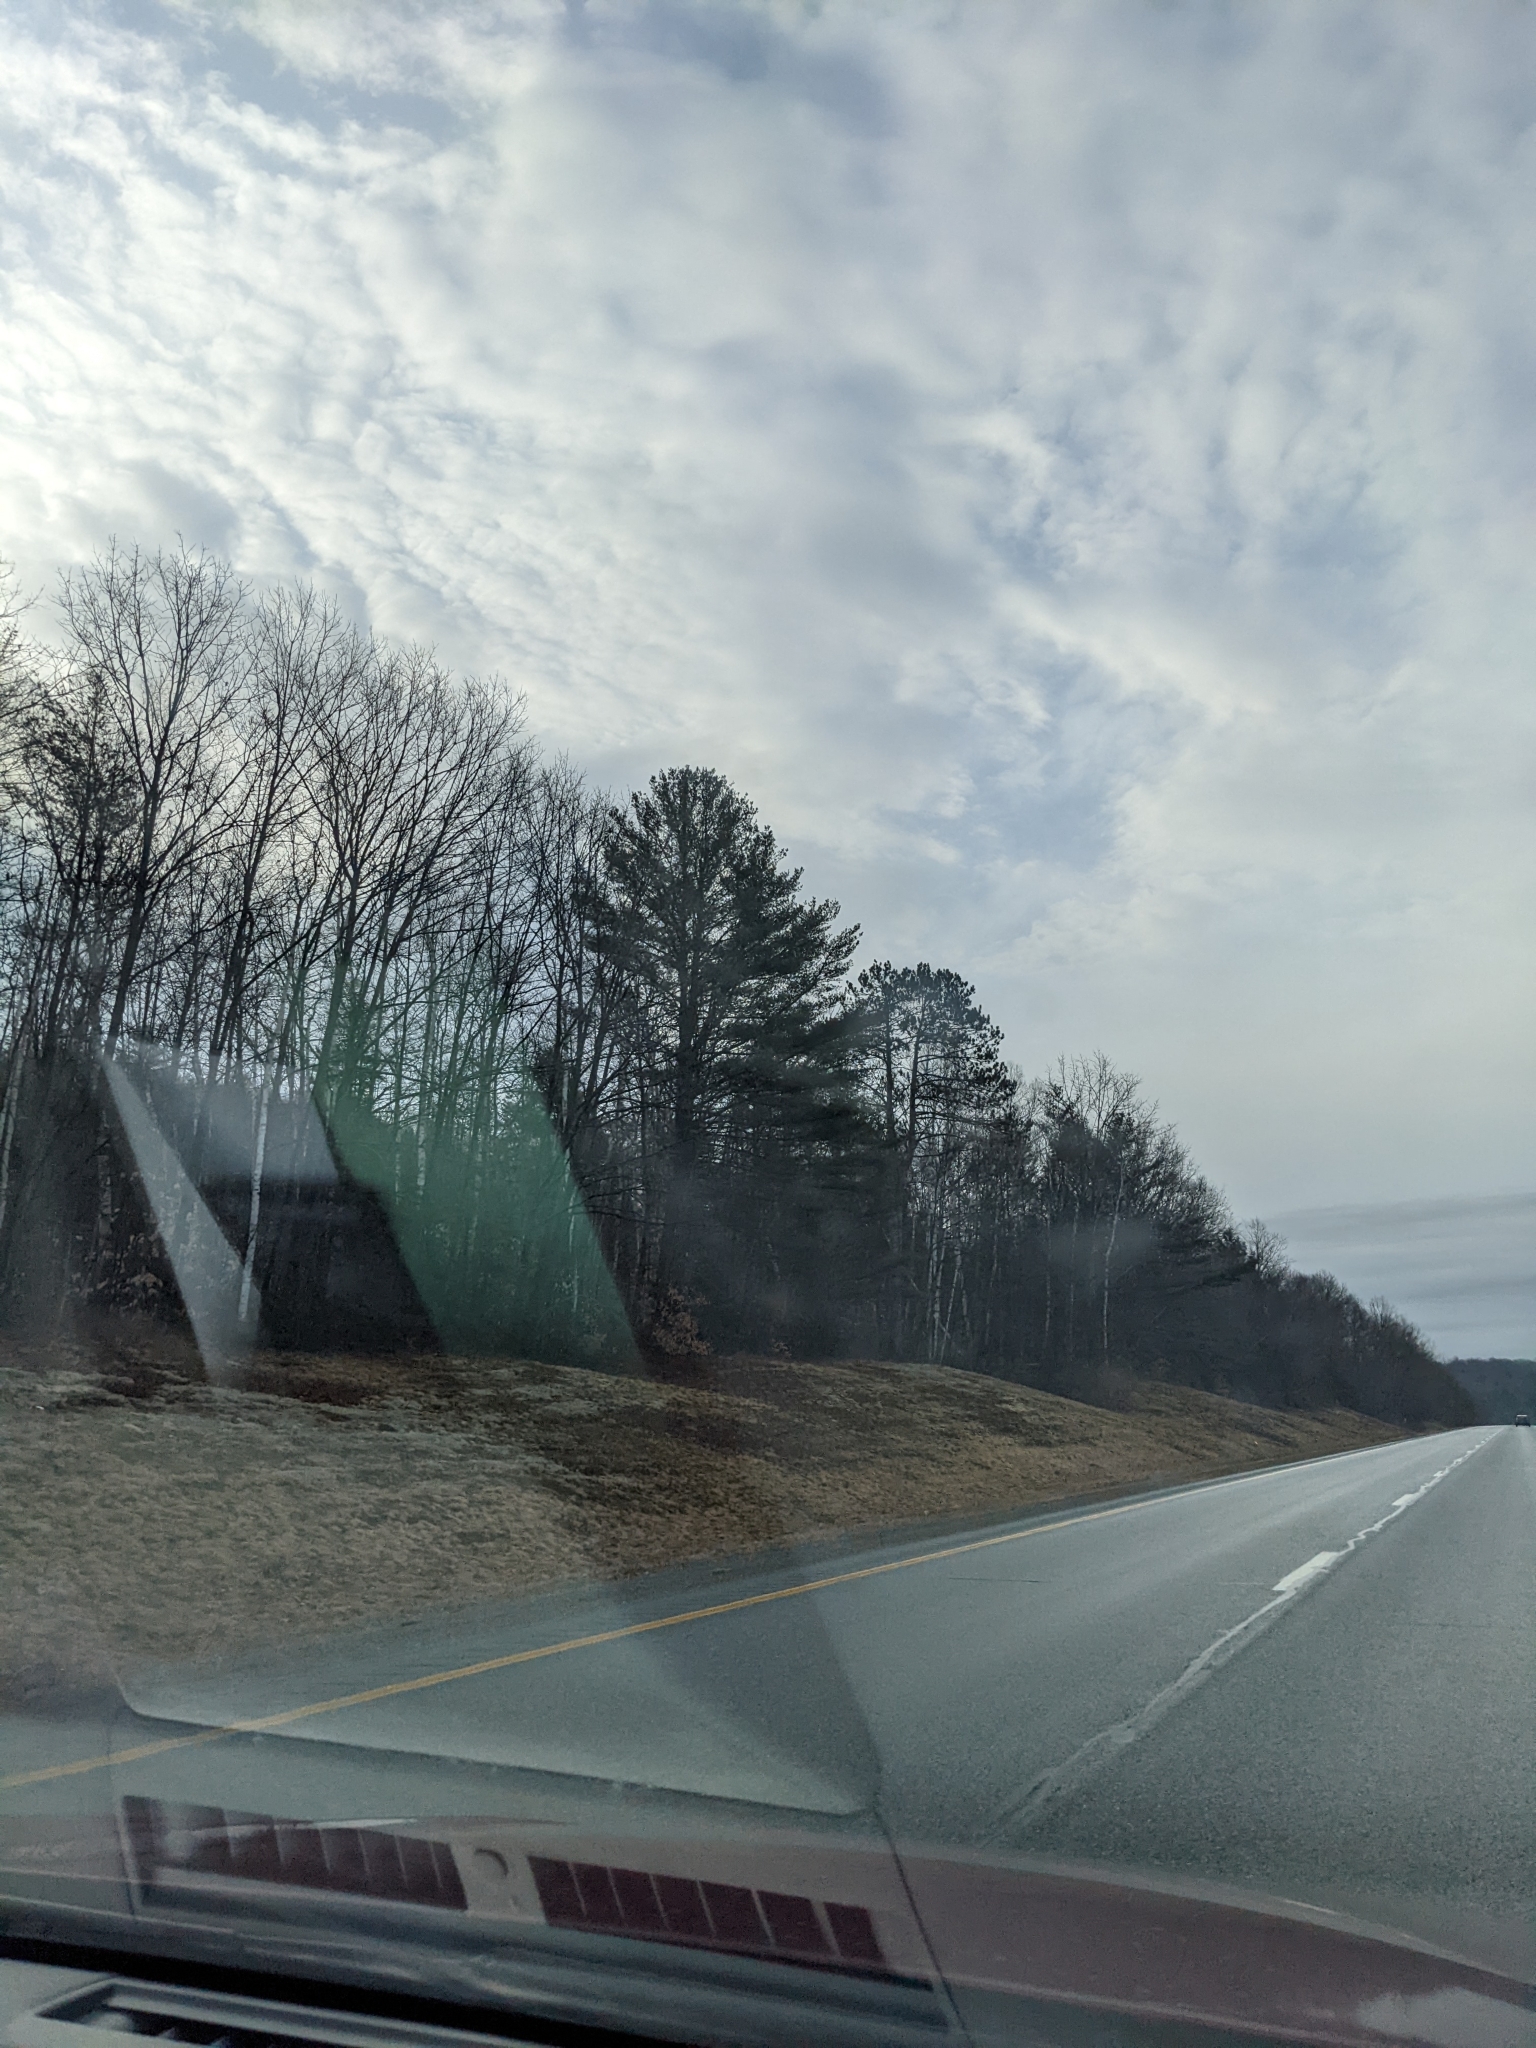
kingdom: Plantae
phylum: Tracheophyta
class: Pinopsida
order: Pinales
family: Pinaceae
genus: Pinus
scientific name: Pinus strobus
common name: Weymouth pine
